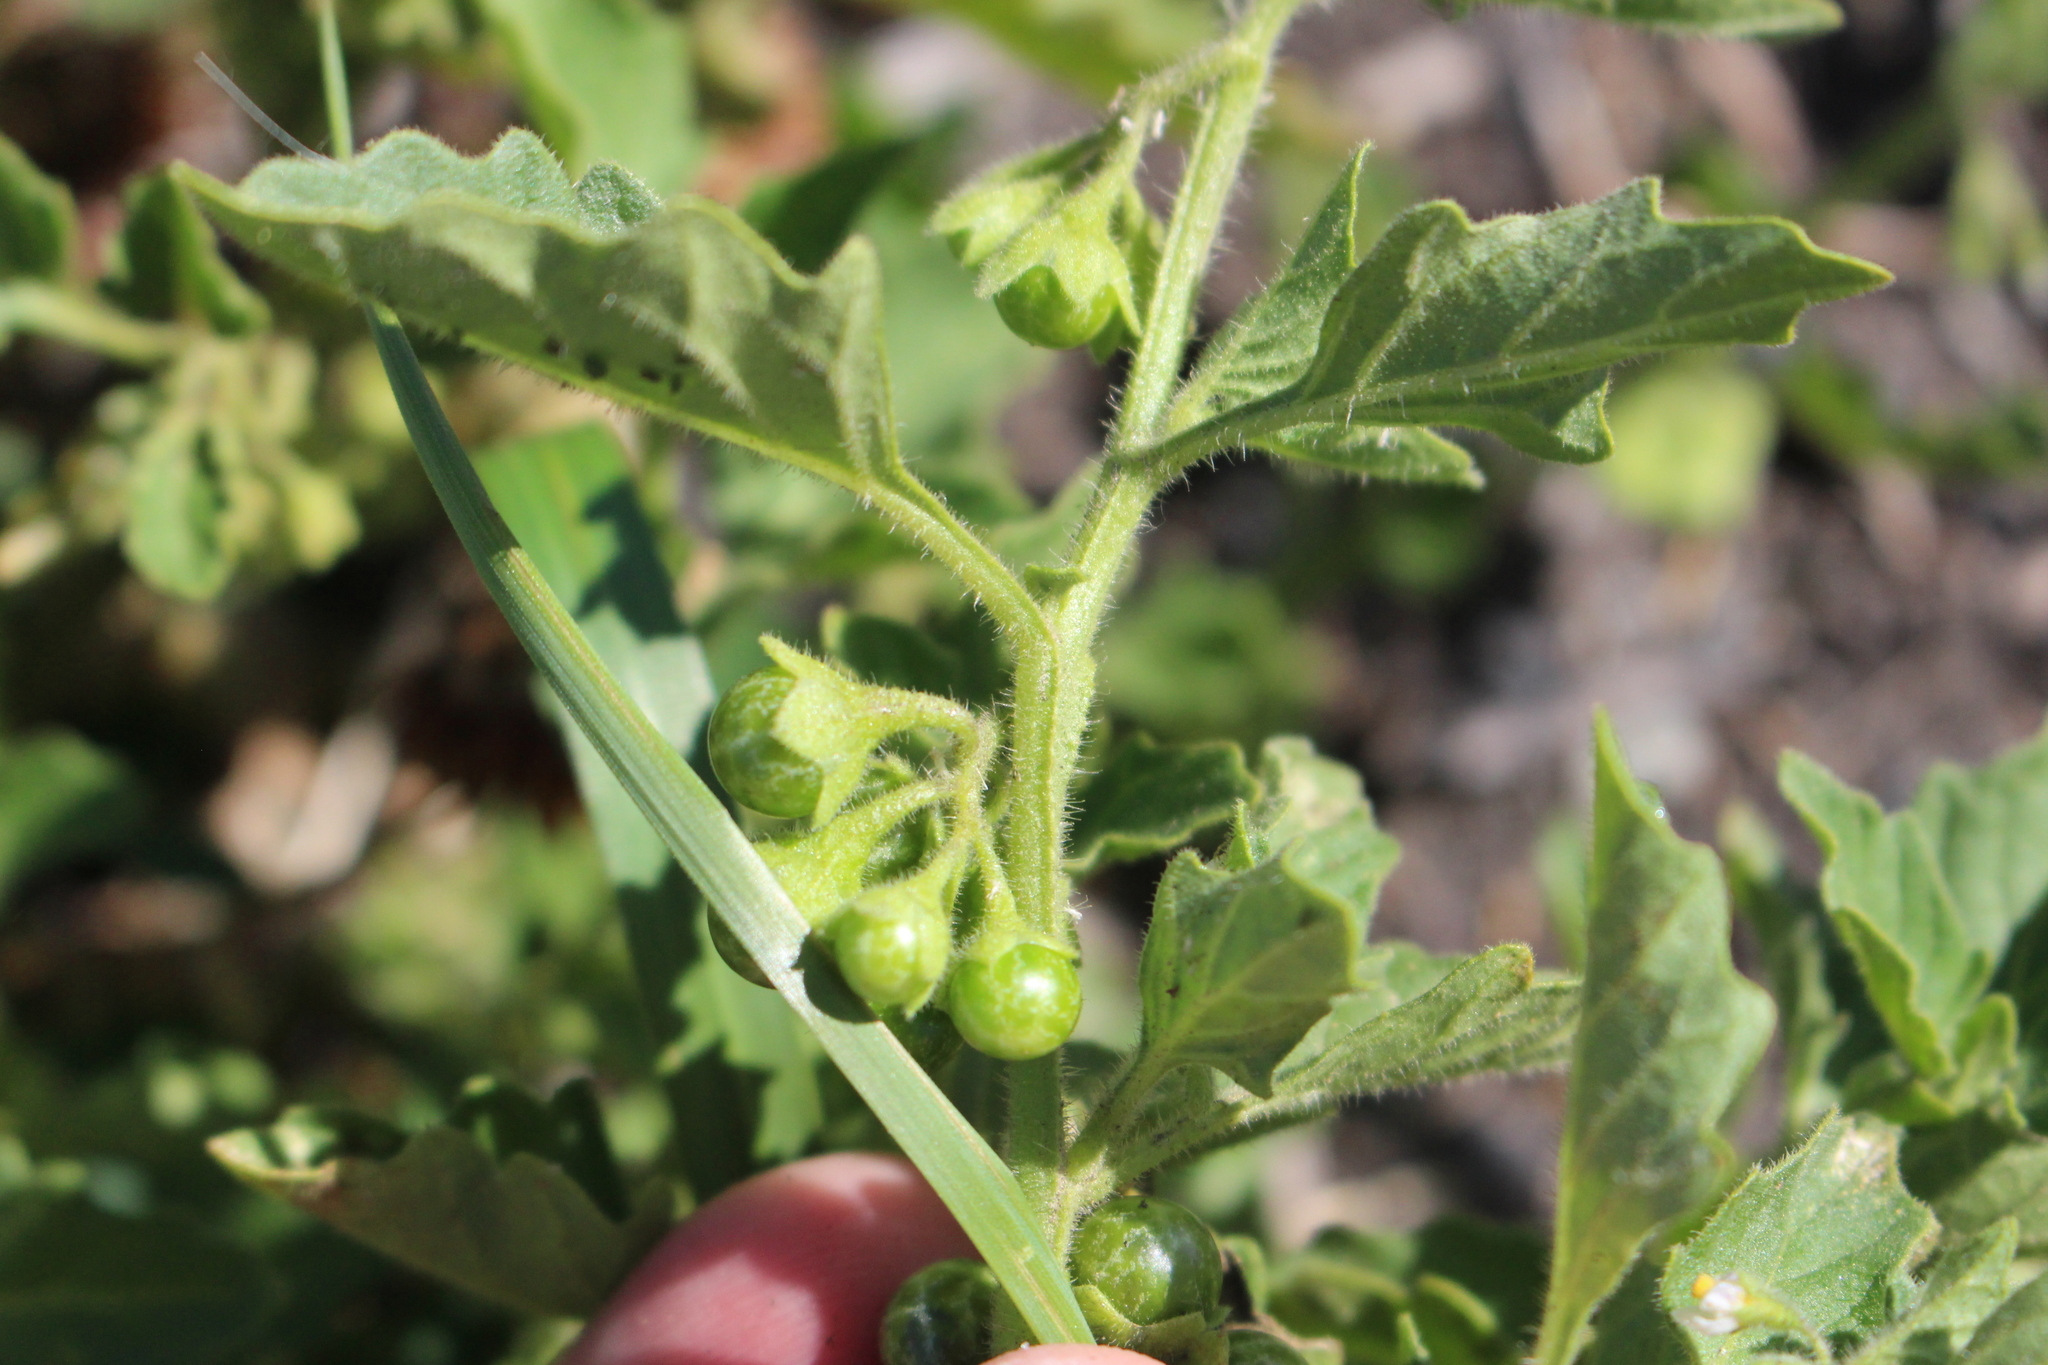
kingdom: Plantae
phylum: Tracheophyta
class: Magnoliopsida
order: Solanales
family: Solanaceae
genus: Solanum
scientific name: Solanum nitidibaccatum
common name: Hairy nightshade
